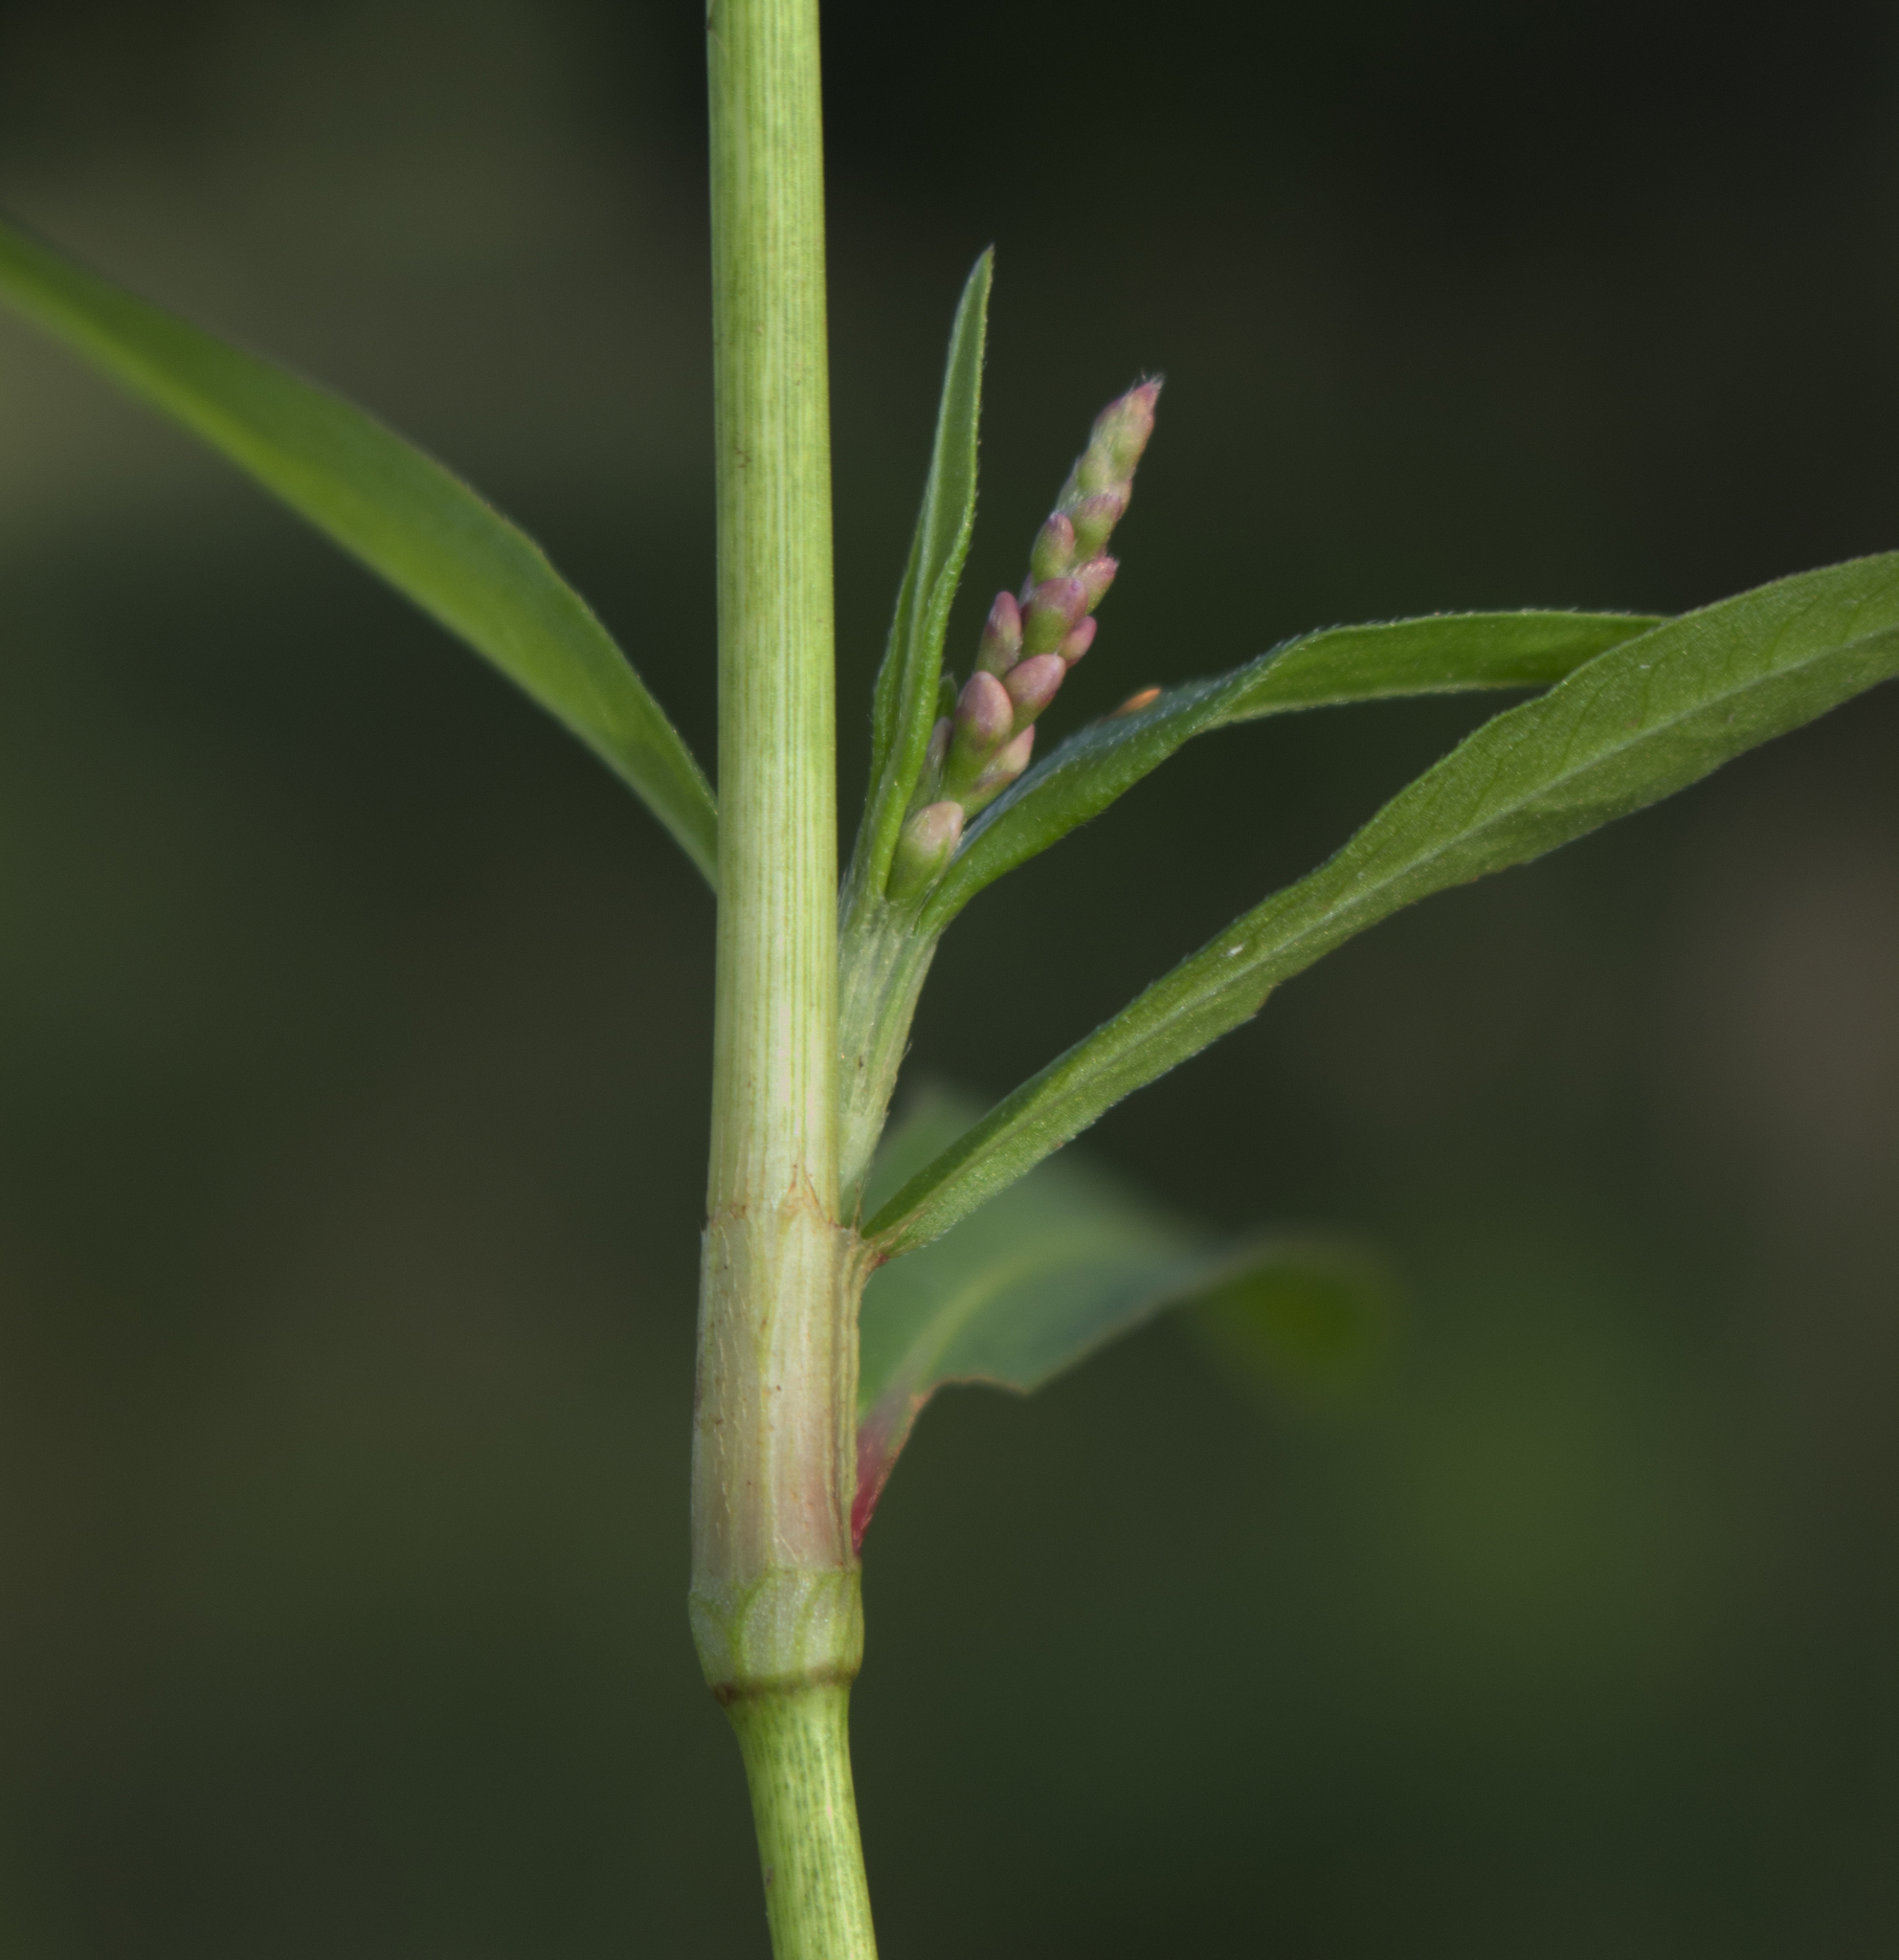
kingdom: Plantae
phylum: Tracheophyta
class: Magnoliopsida
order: Caryophyllales
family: Polygonaceae
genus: Persicaria
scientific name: Persicaria maculosa
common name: Redshank
